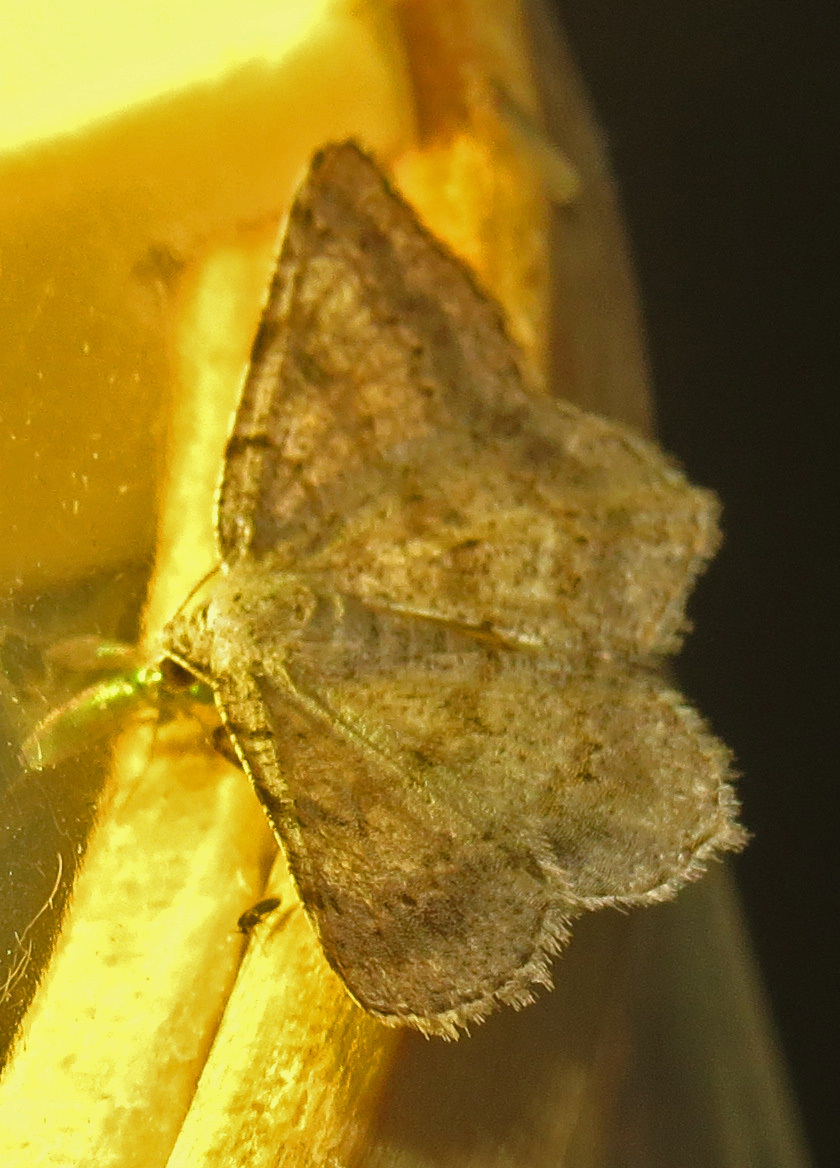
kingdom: Animalia
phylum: Arthropoda
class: Insecta
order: Lepidoptera
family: Geometridae
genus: Digrammia
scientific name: Digrammia ocellinata
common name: Faint-spotted angle
